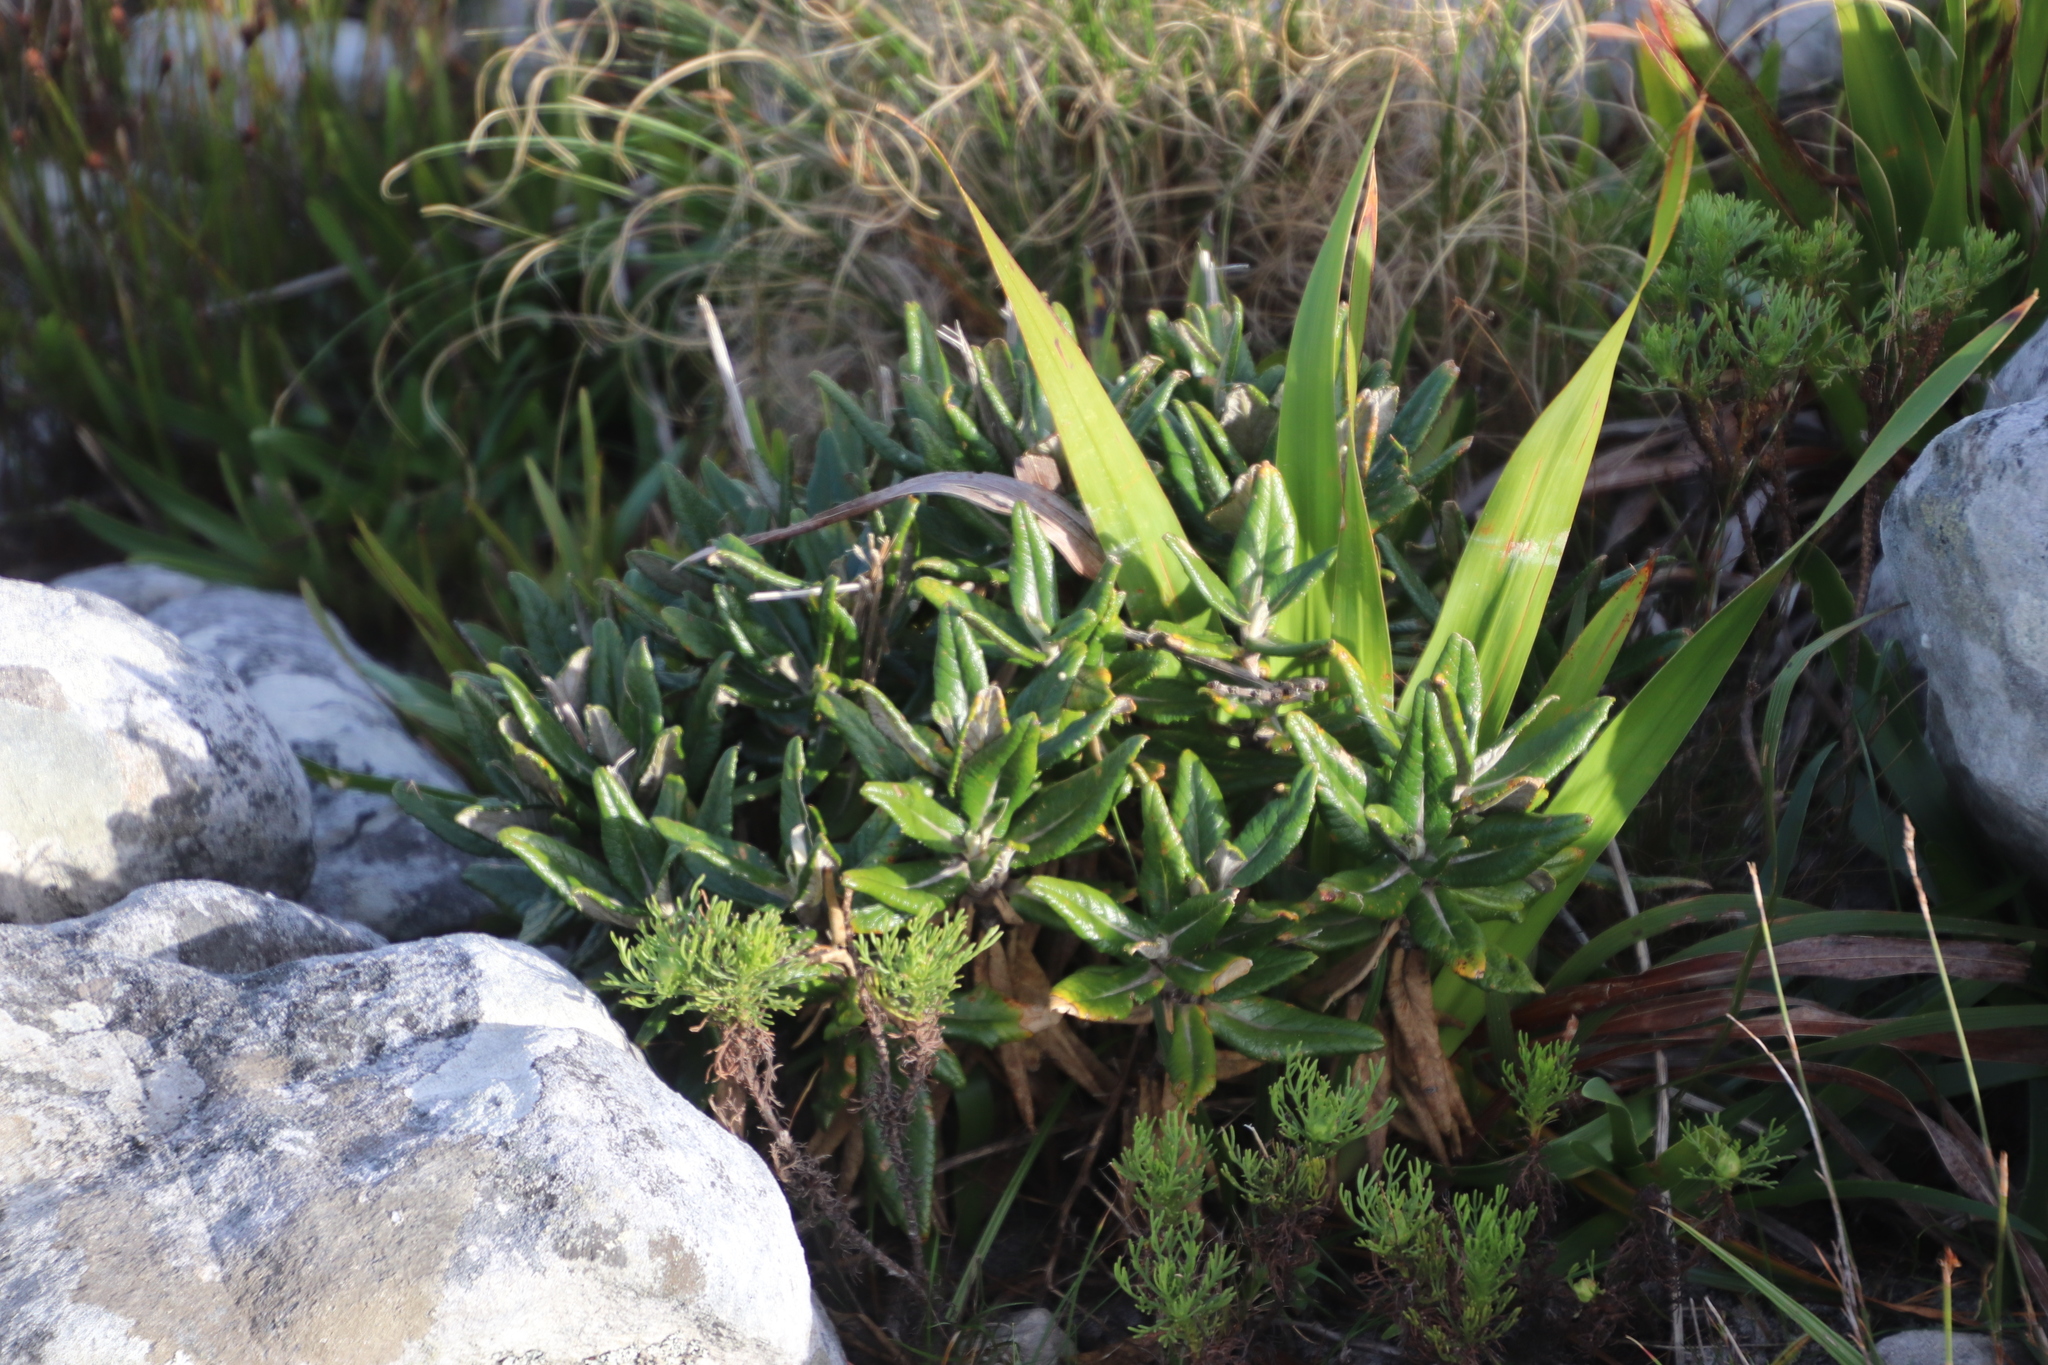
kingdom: Plantae
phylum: Tracheophyta
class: Magnoliopsida
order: Apiales
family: Apiaceae
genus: Hermas
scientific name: Hermas villosa
